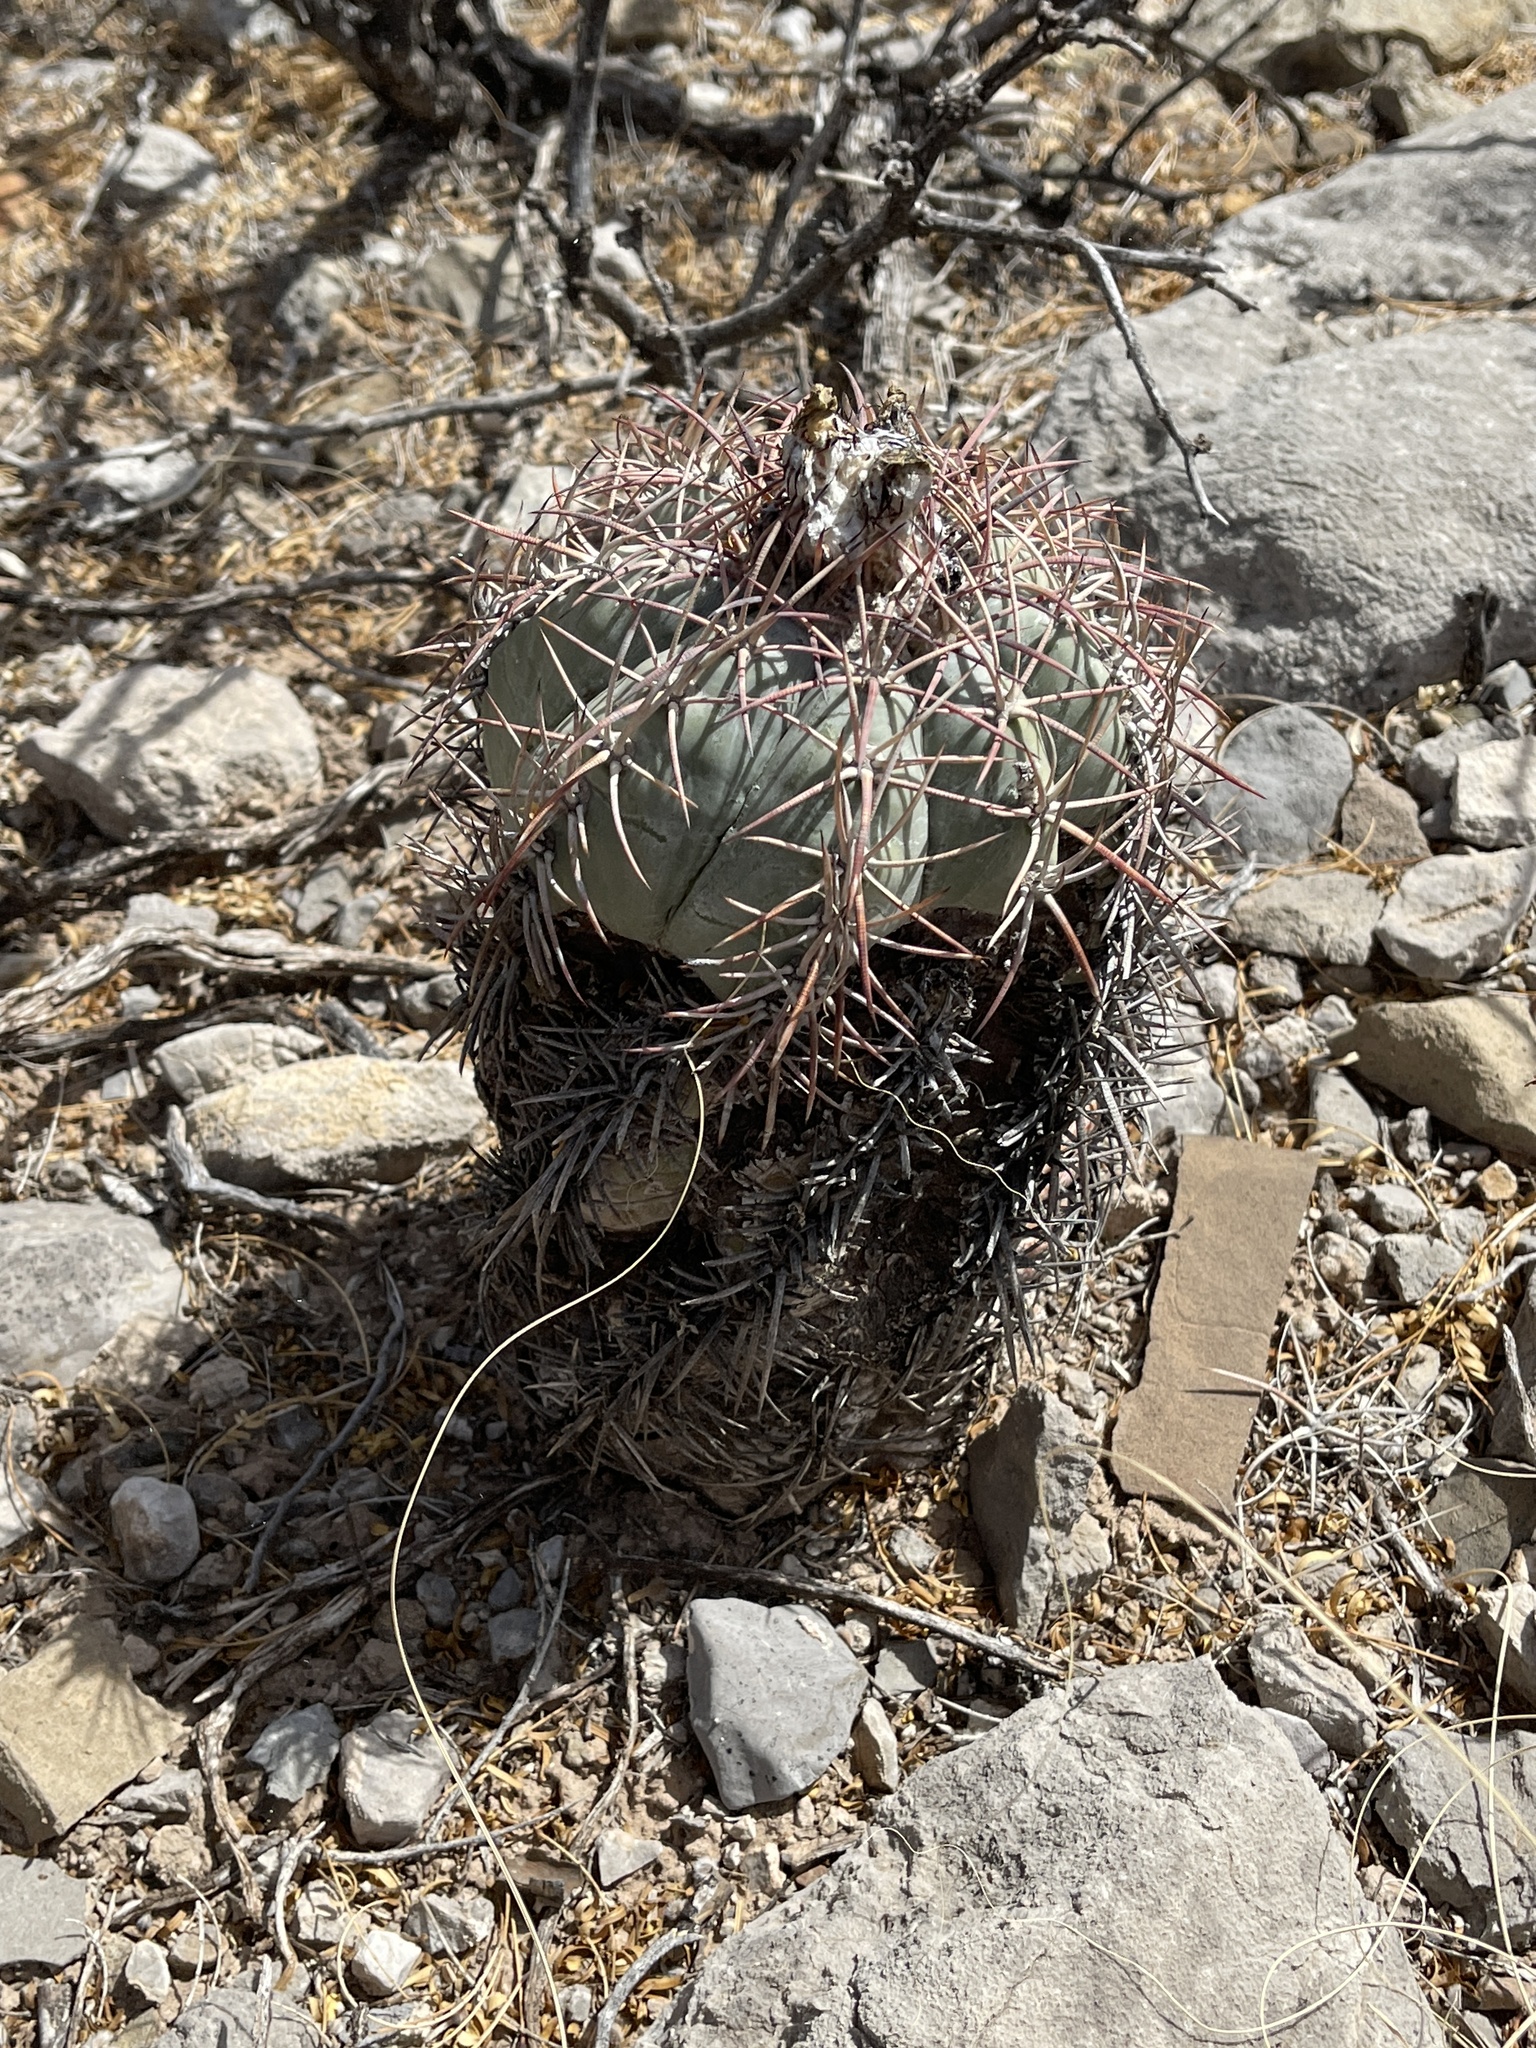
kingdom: Plantae
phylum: Tracheophyta
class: Magnoliopsida
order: Caryophyllales
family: Cactaceae
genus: Echinocactus
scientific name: Echinocactus horizonthalonius
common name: Devilshead
